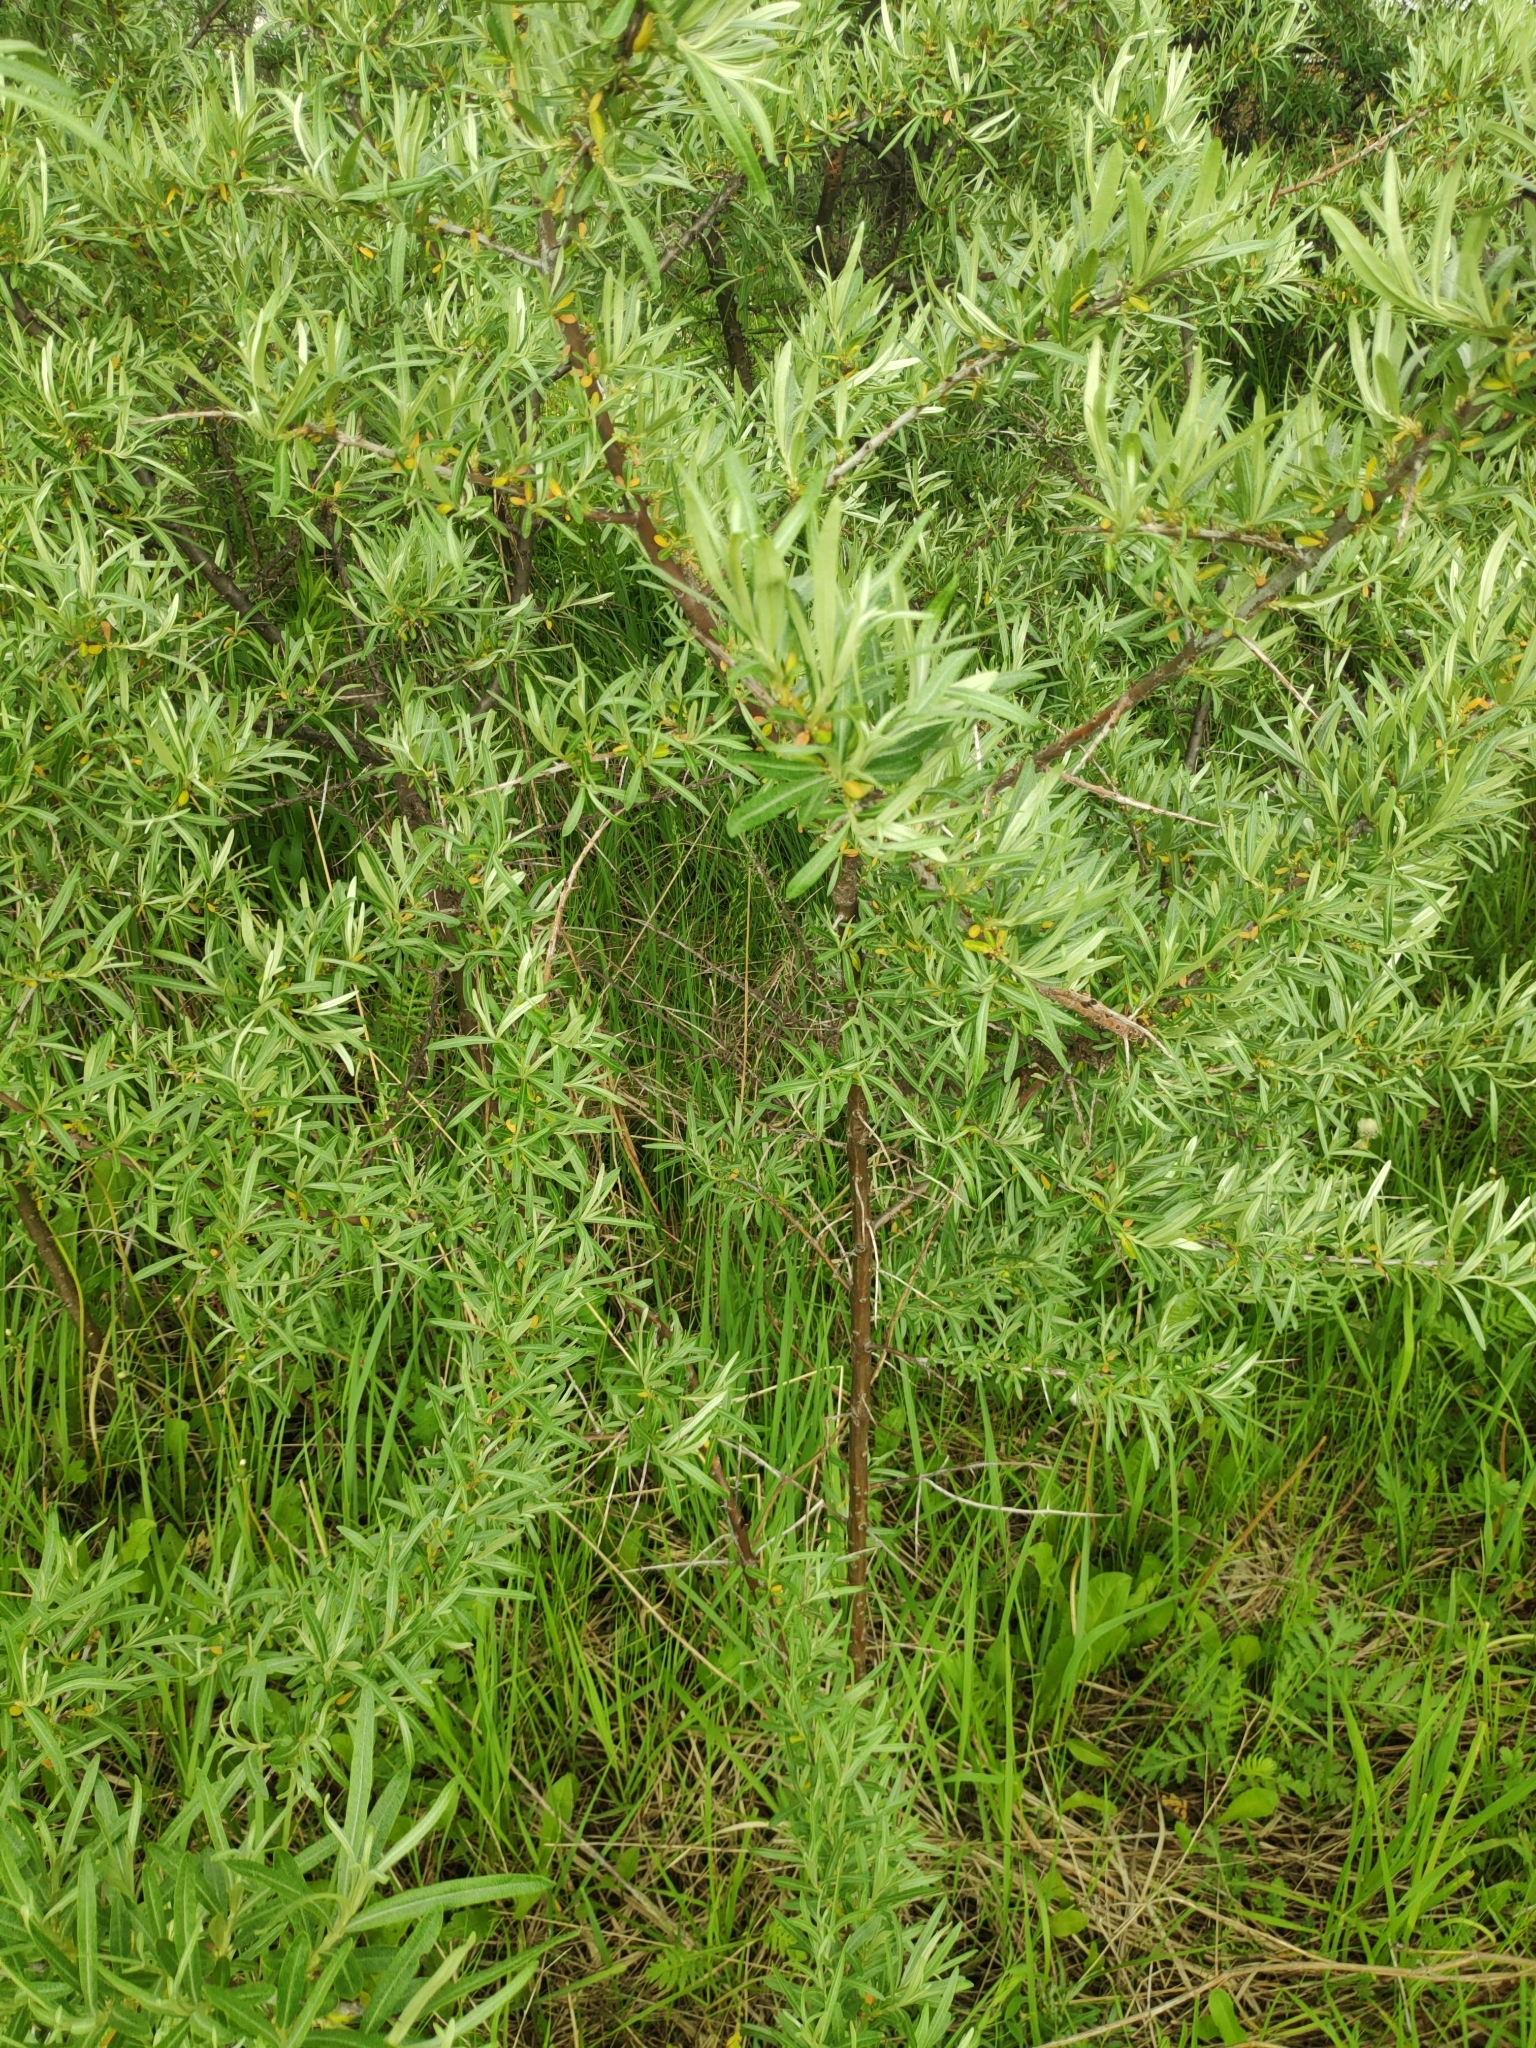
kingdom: Plantae
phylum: Tracheophyta
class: Magnoliopsida
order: Rosales
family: Elaeagnaceae
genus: Hippophae
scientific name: Hippophae rhamnoides
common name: Sea-buckthorn
